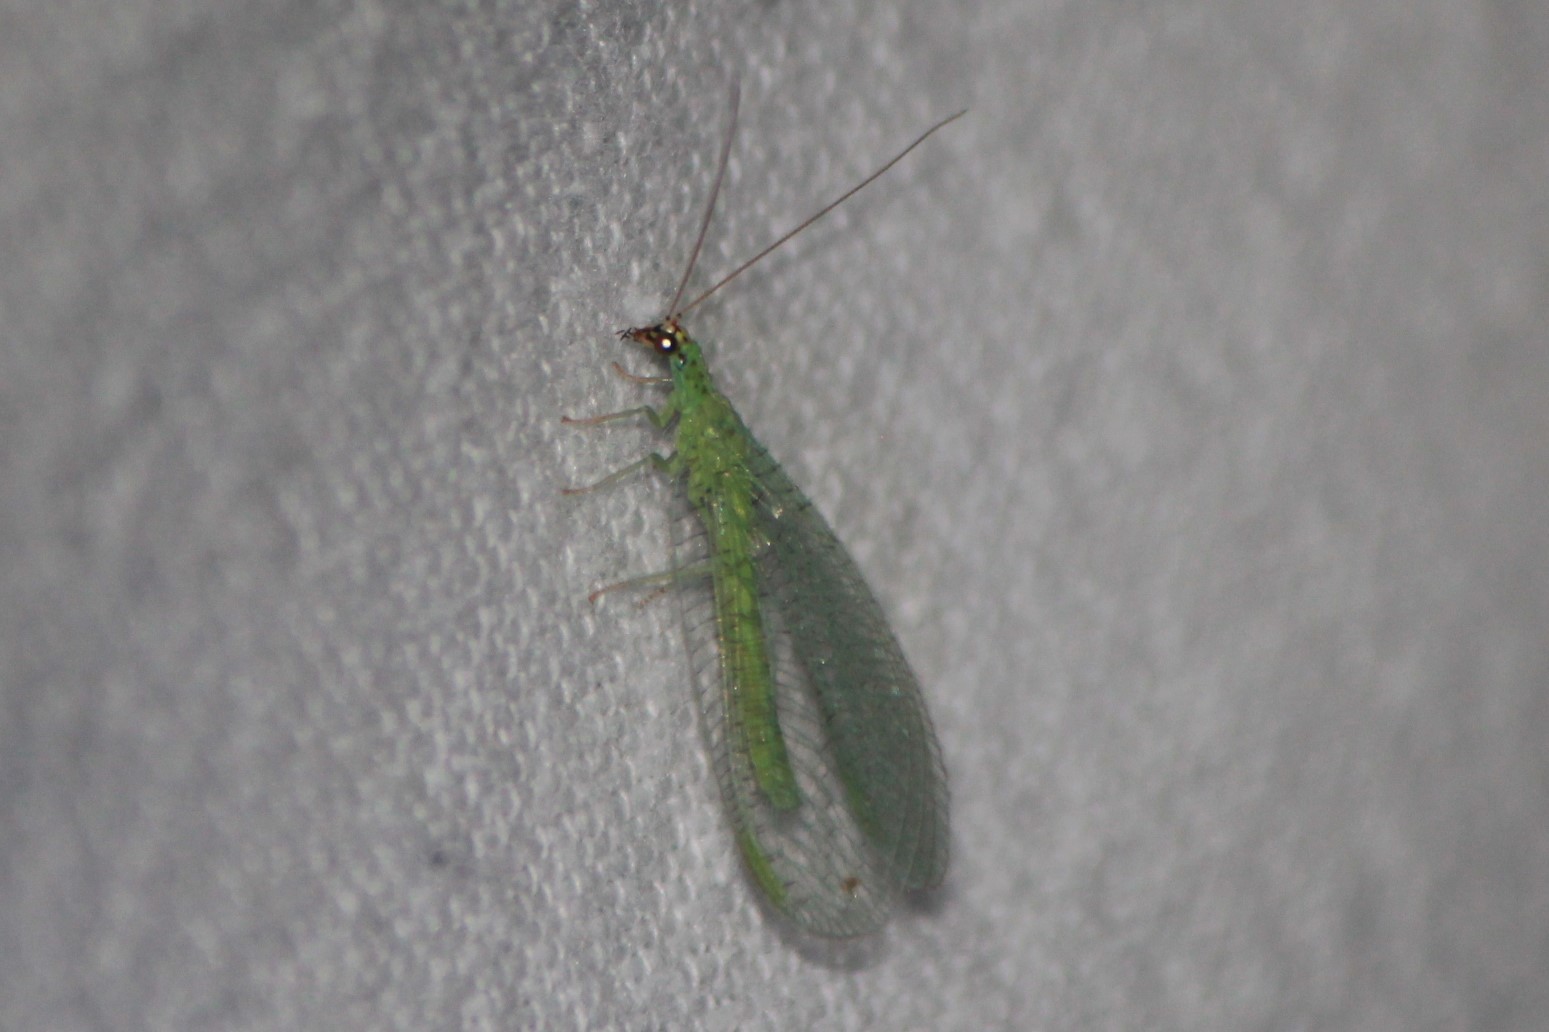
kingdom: Animalia
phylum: Arthropoda
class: Insecta
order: Neuroptera
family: Chrysopidae
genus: Chrysopa
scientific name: Chrysopa oculata
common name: Golden-eyed lacewing
